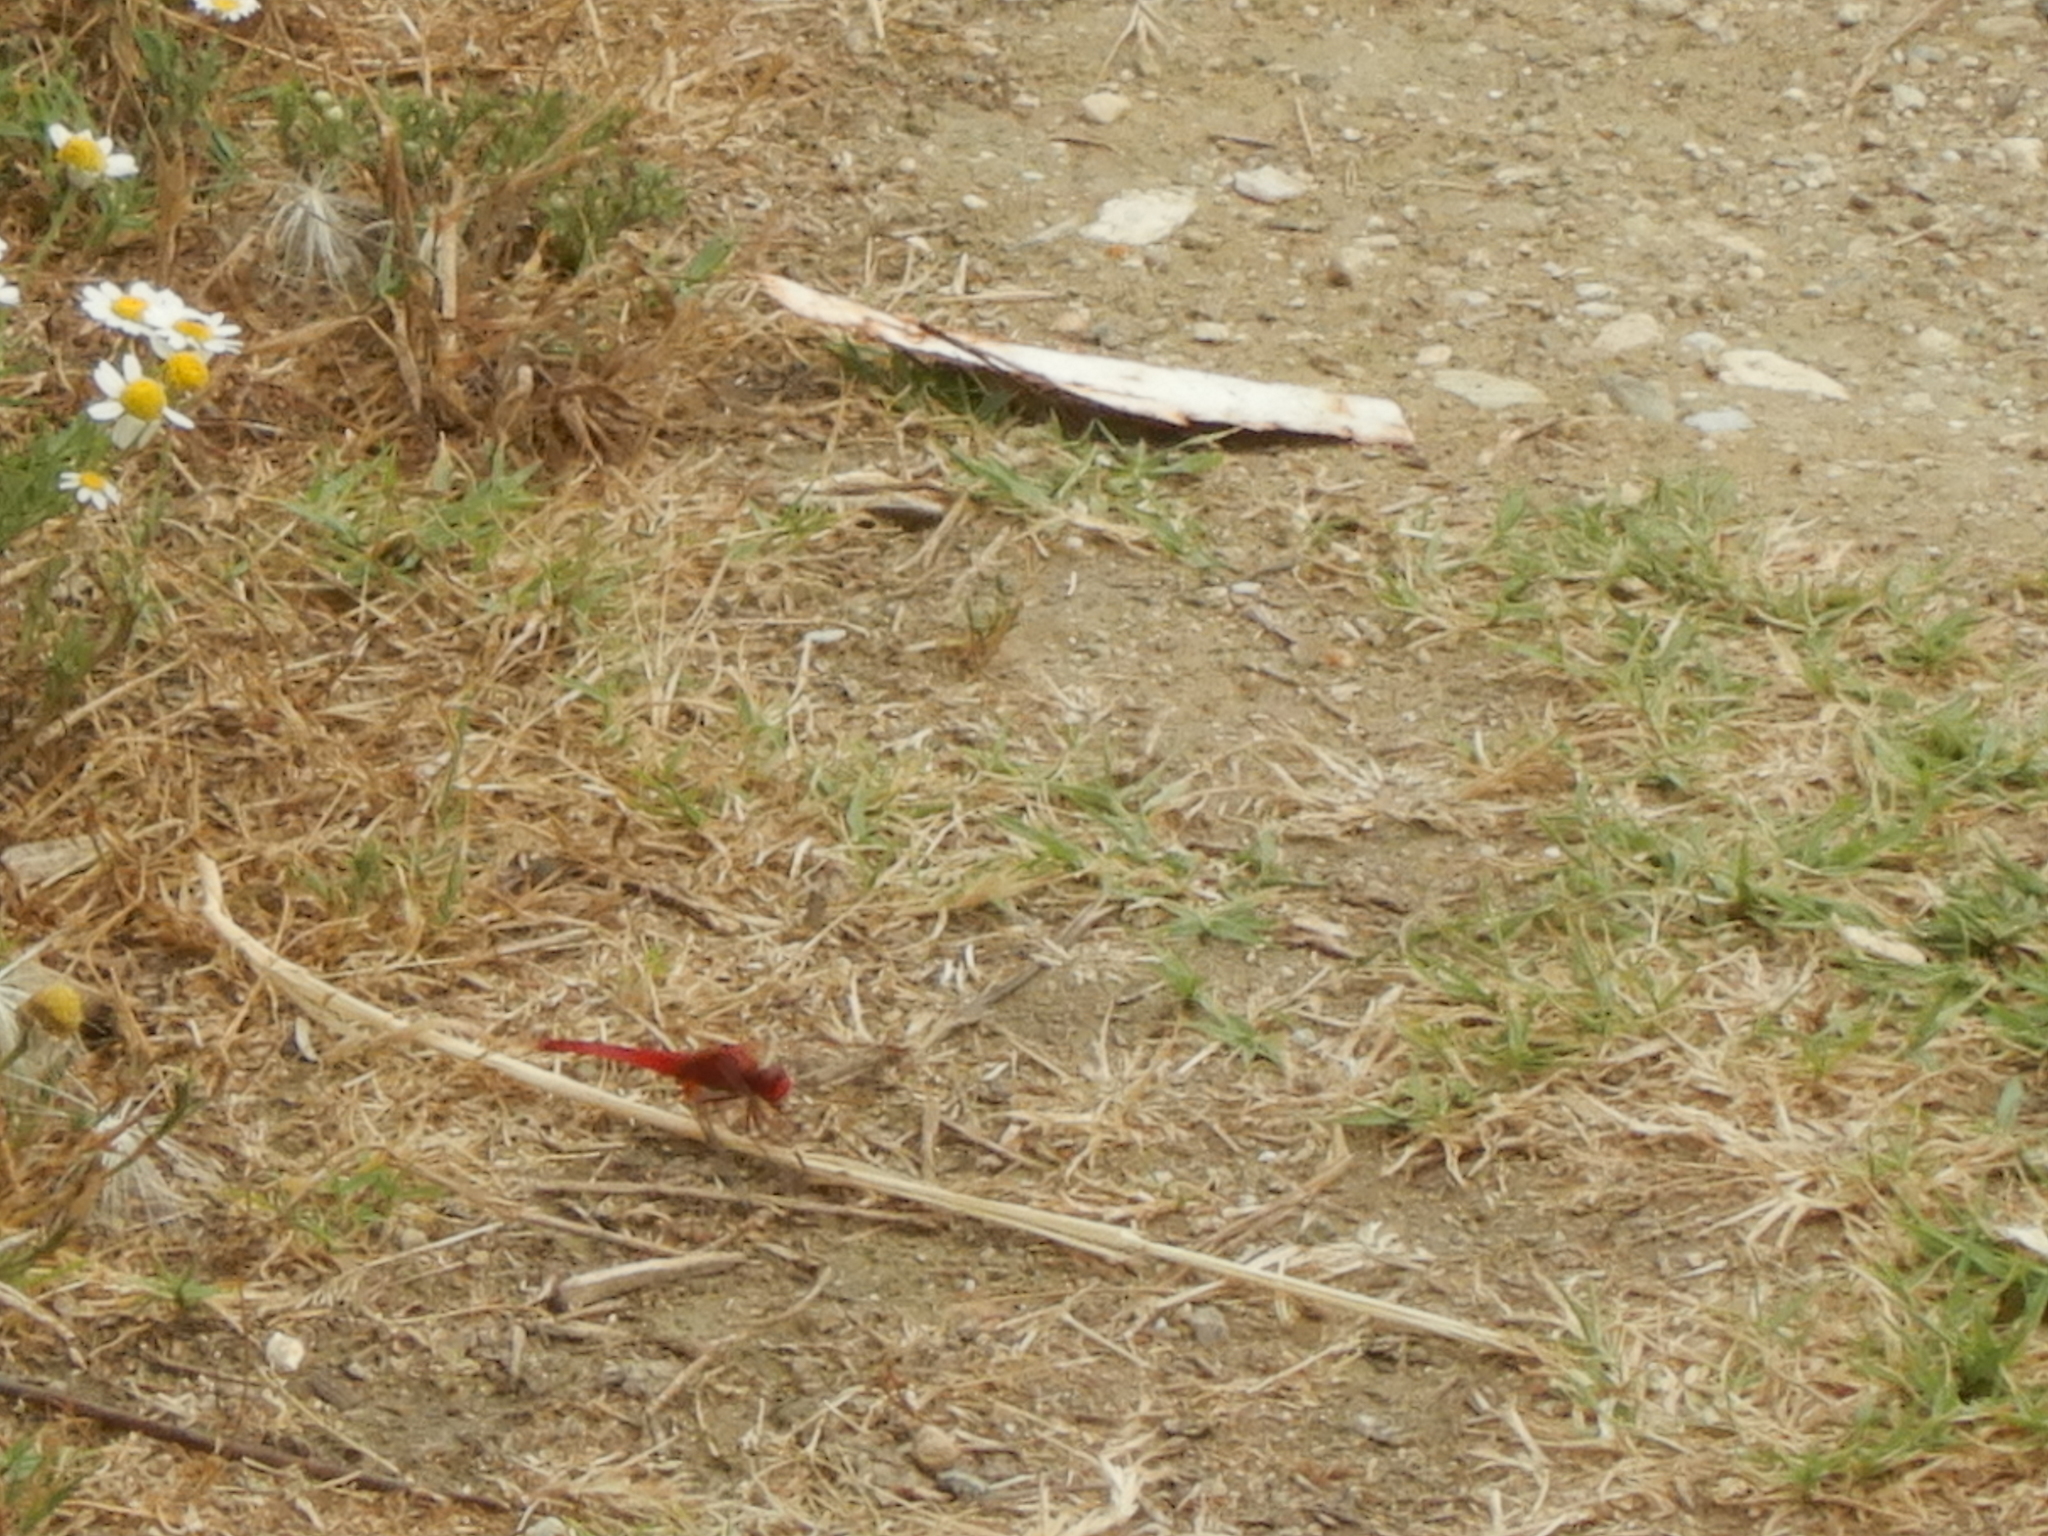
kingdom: Animalia
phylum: Arthropoda
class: Insecta
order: Odonata
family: Libellulidae
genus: Crocothemis
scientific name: Crocothemis erythraea
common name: Scarlet dragonfly
